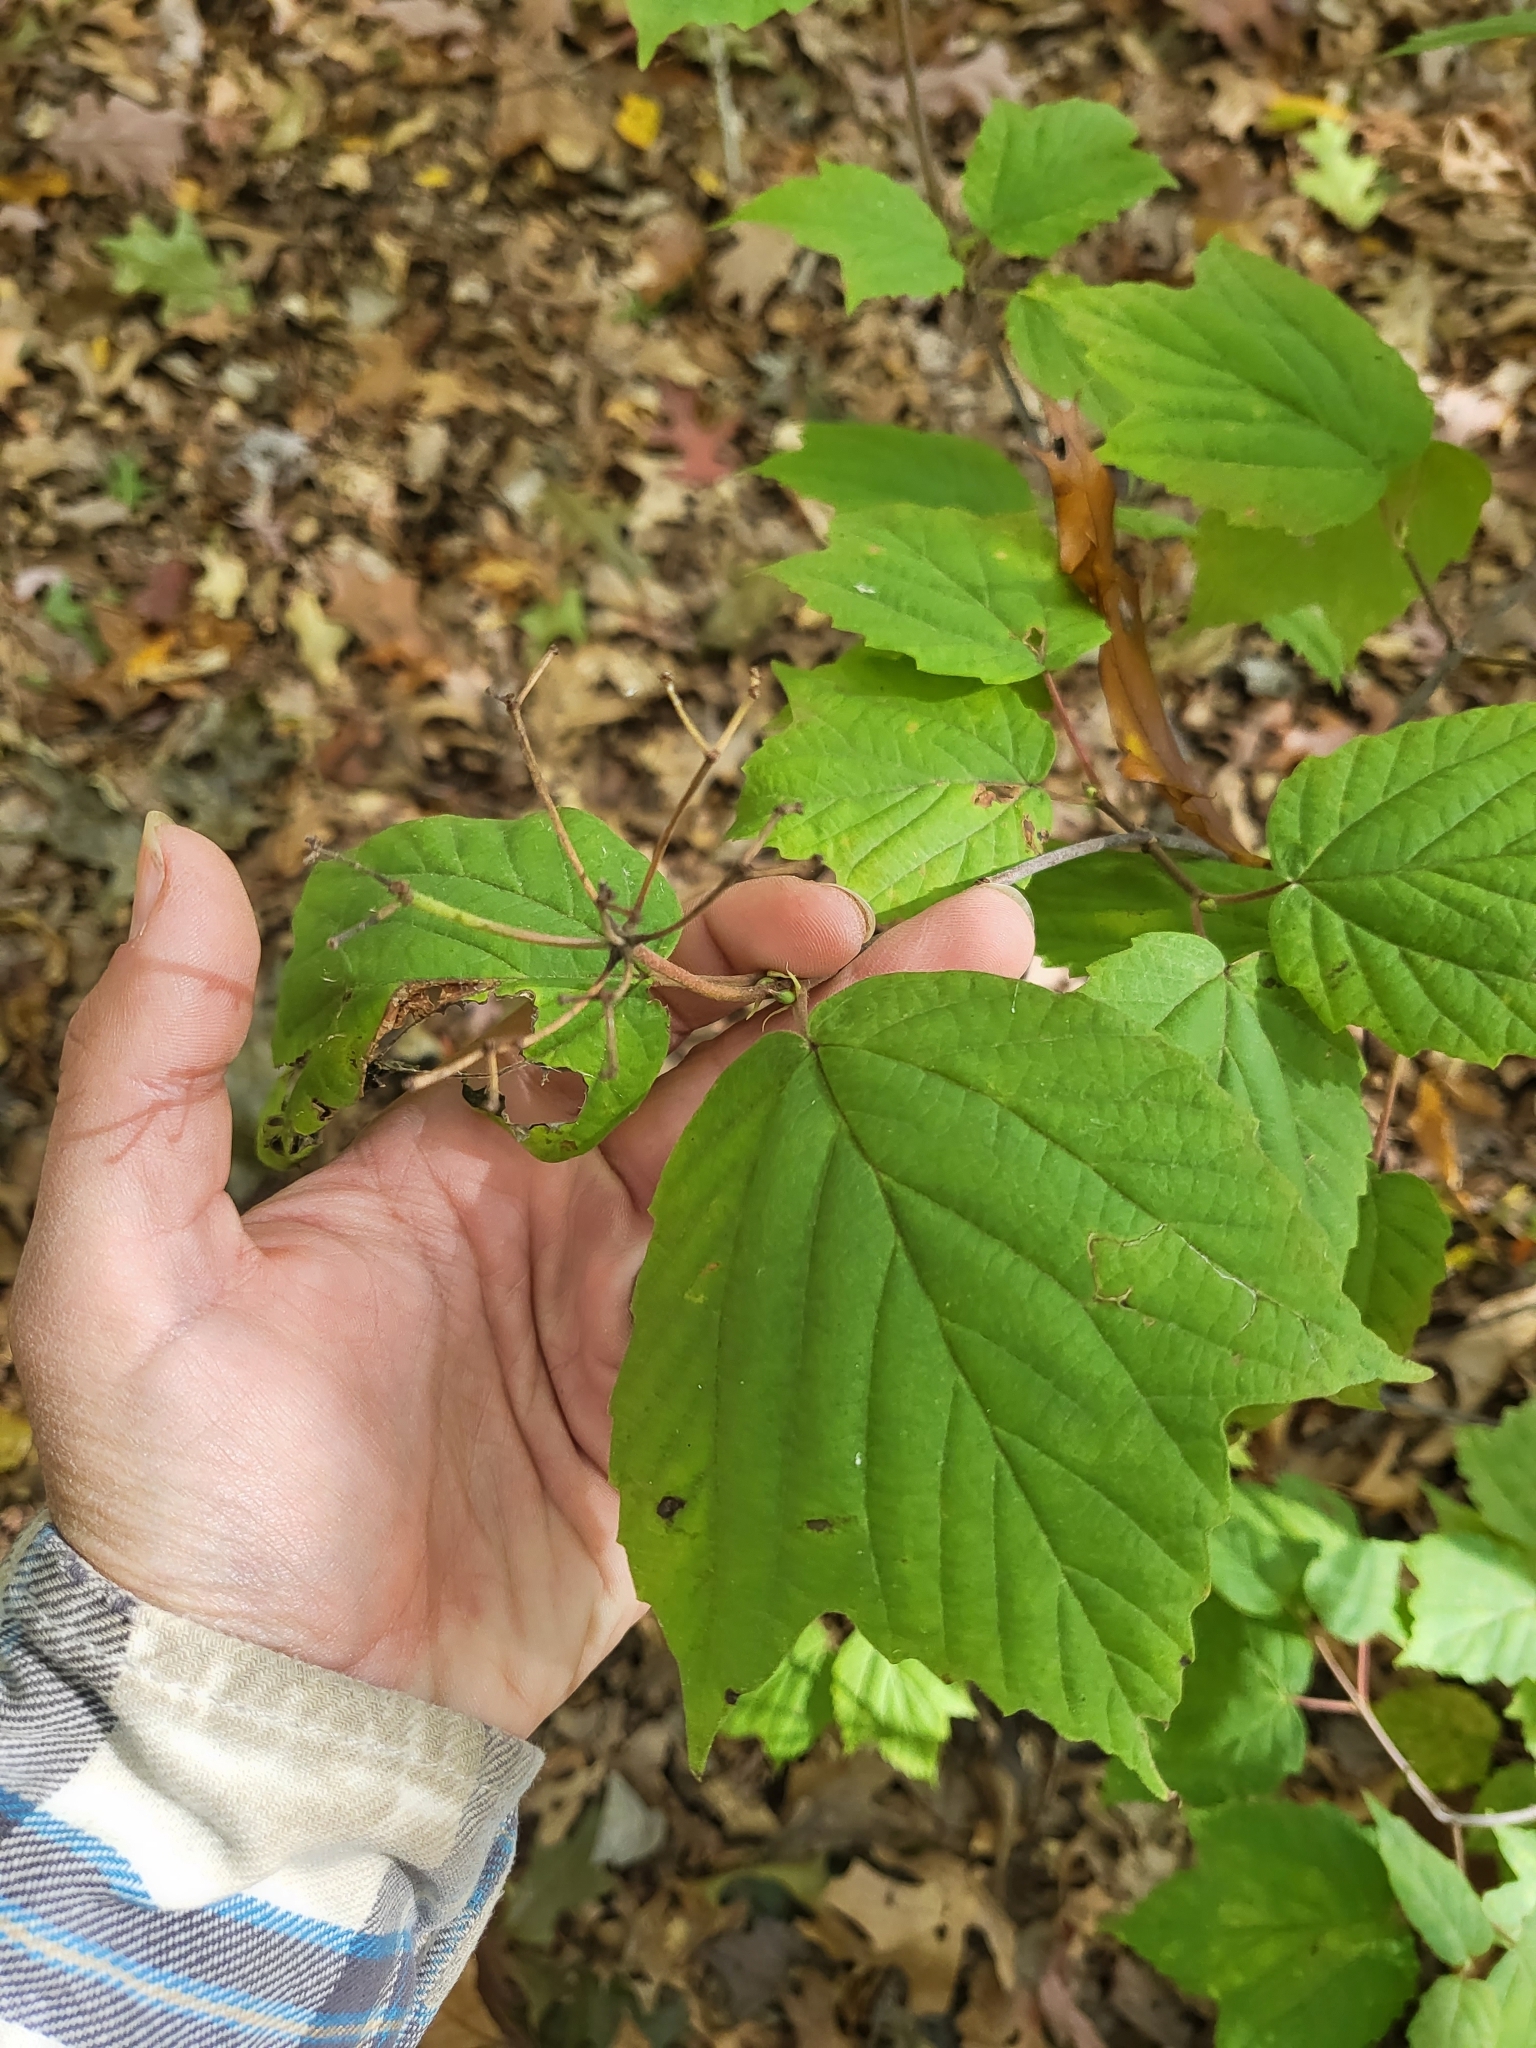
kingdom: Plantae
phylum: Tracheophyta
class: Magnoliopsida
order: Dipsacales
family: Viburnaceae
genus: Viburnum
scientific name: Viburnum acerifolium
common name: Dockmackie
